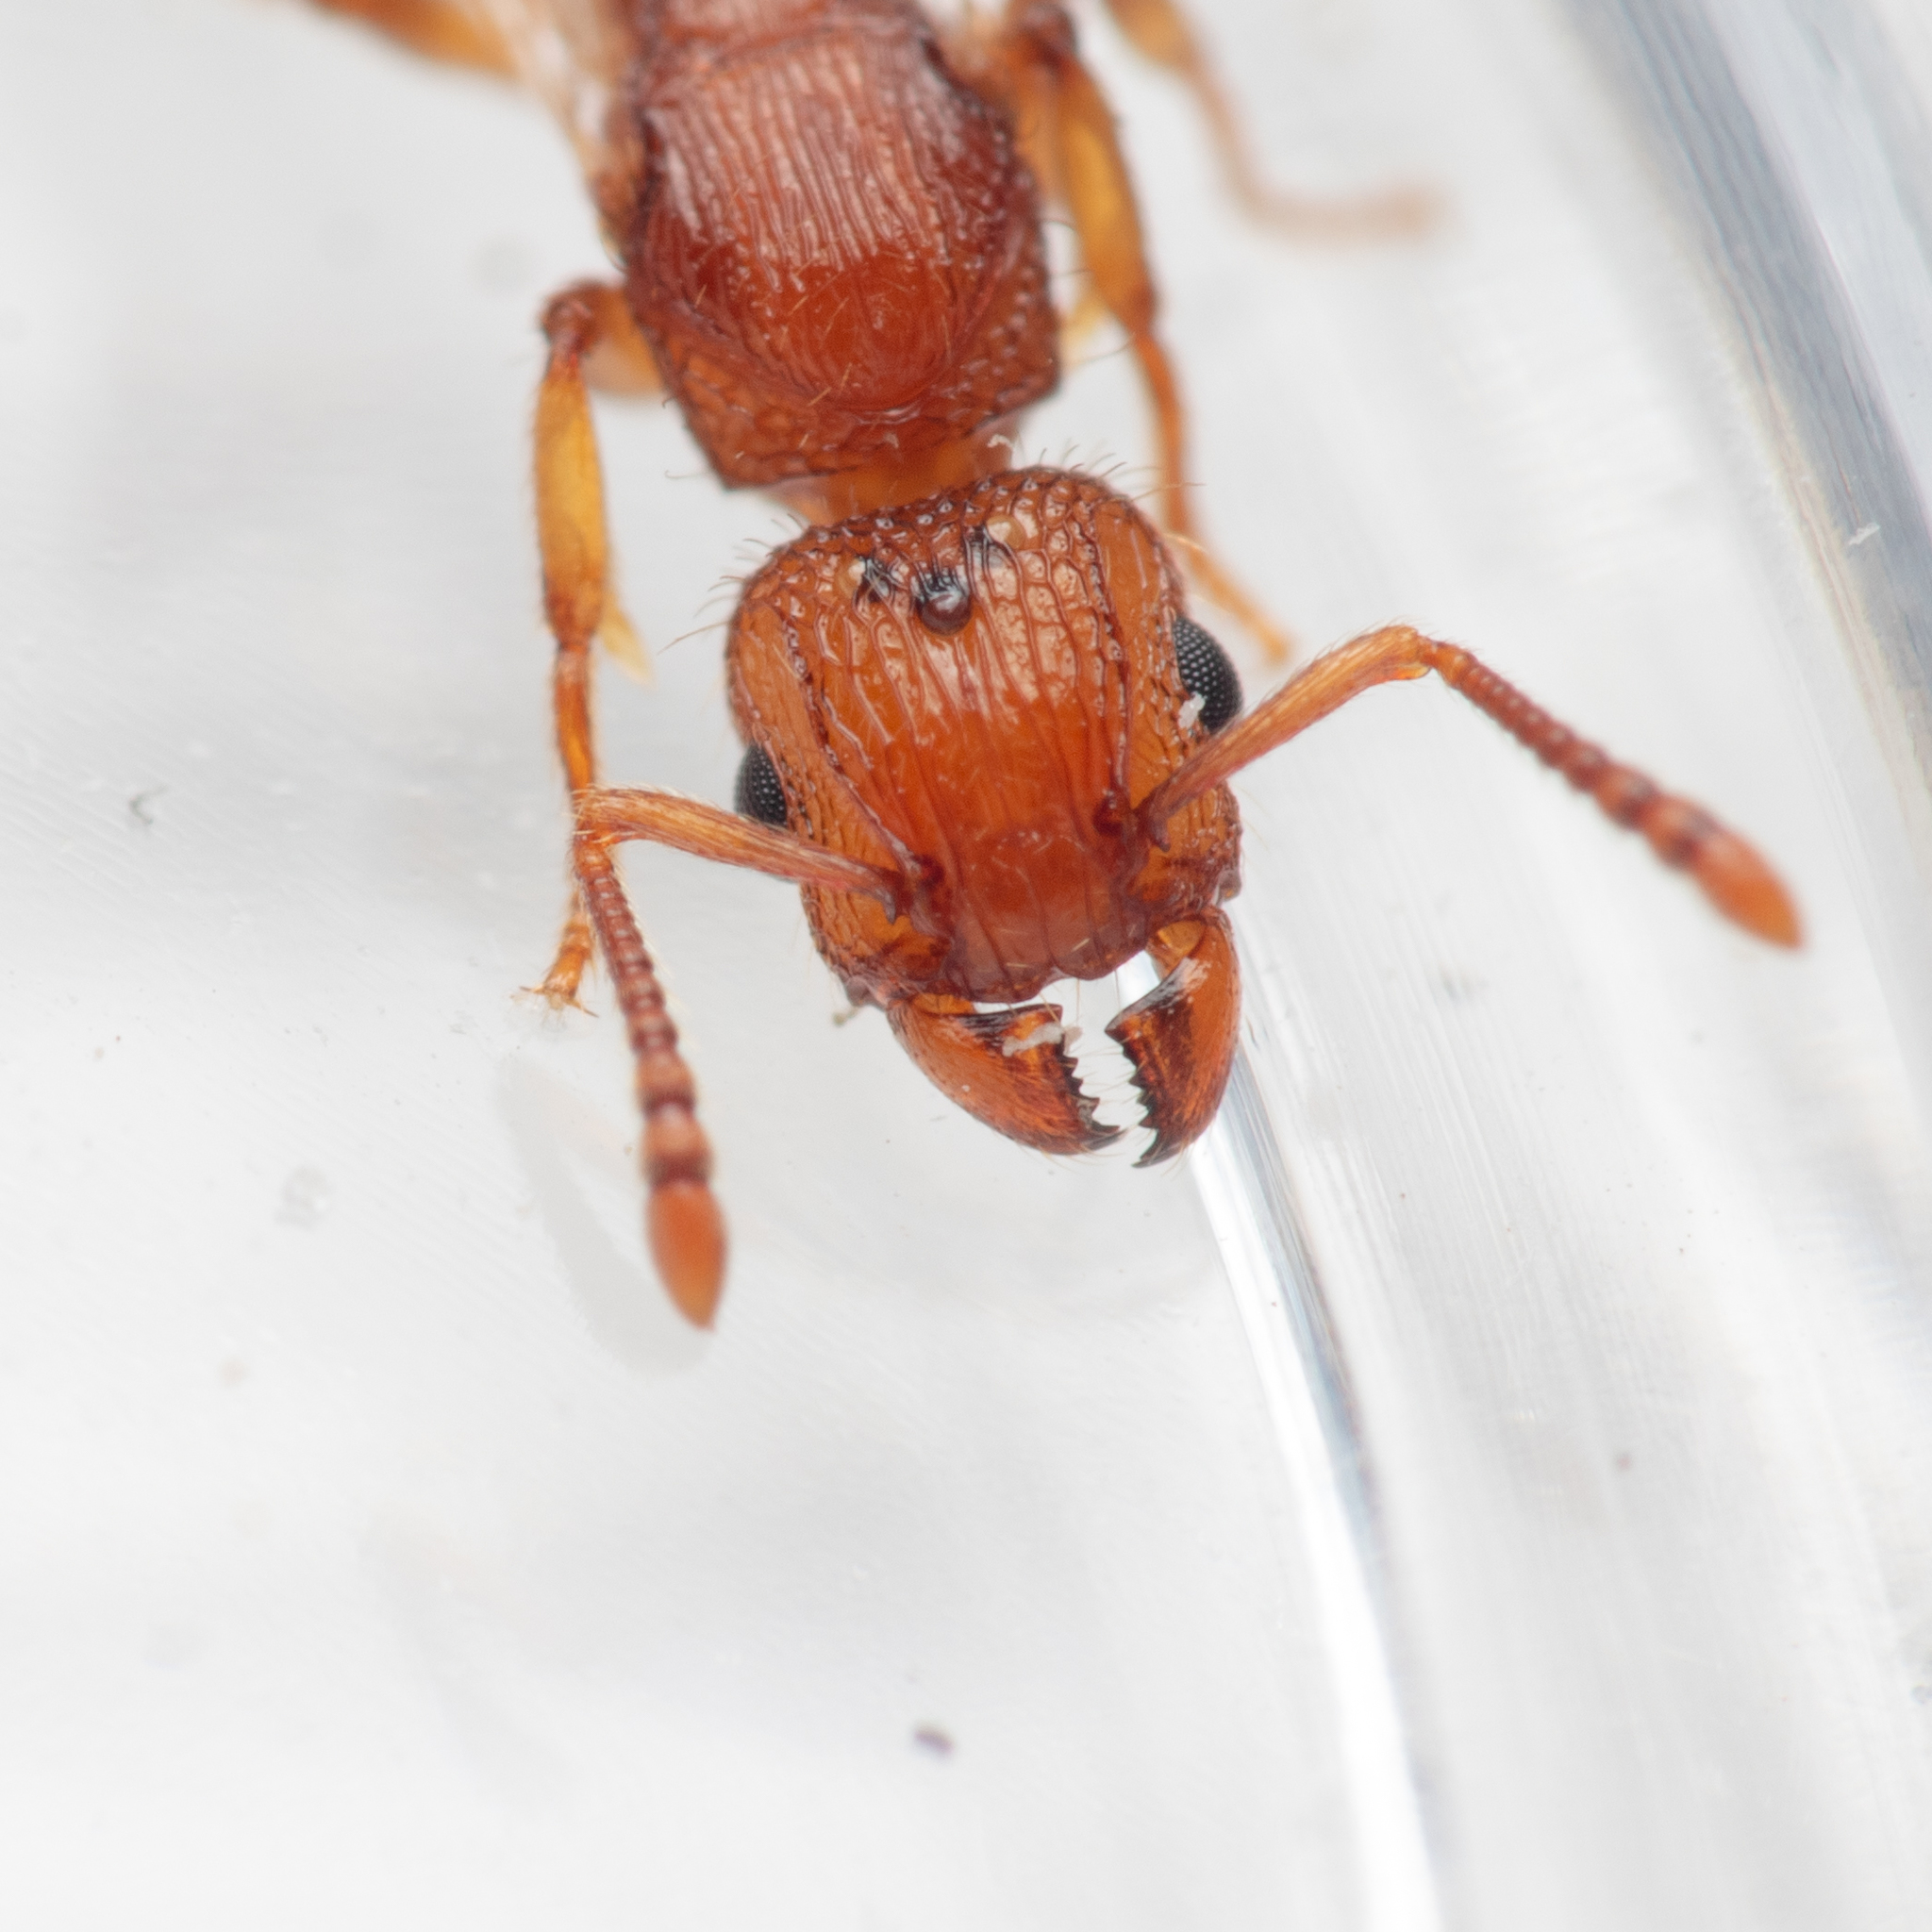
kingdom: Animalia
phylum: Arthropoda
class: Insecta
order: Hymenoptera
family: Formicidae
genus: Tetramorium
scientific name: Tetramorium bicarinatum
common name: Guinea ant
